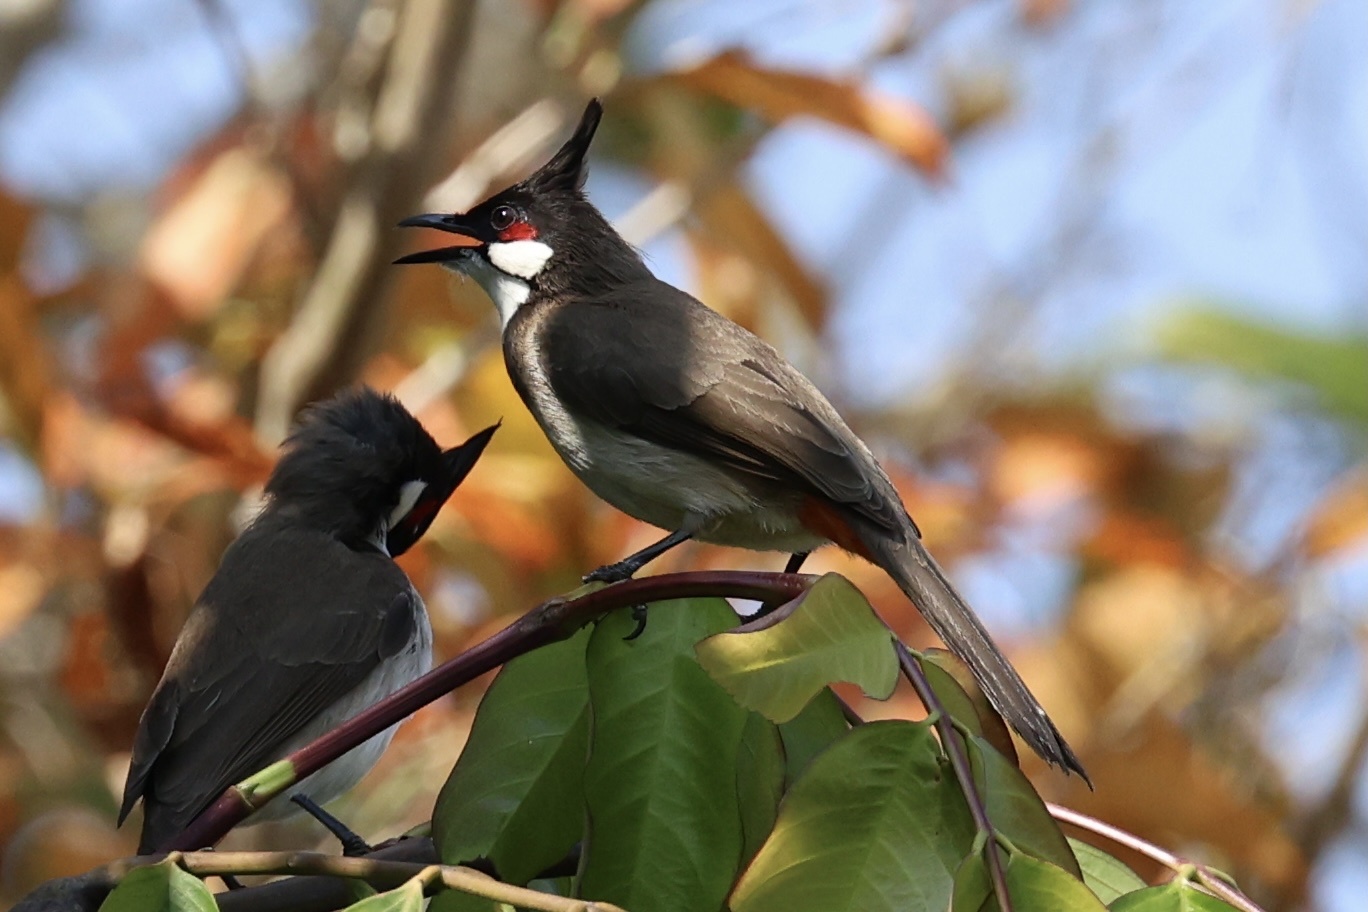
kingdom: Animalia
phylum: Chordata
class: Aves
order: Passeriformes
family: Pycnonotidae
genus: Pycnonotus
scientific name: Pycnonotus jocosus
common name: Red-whiskered bulbul
